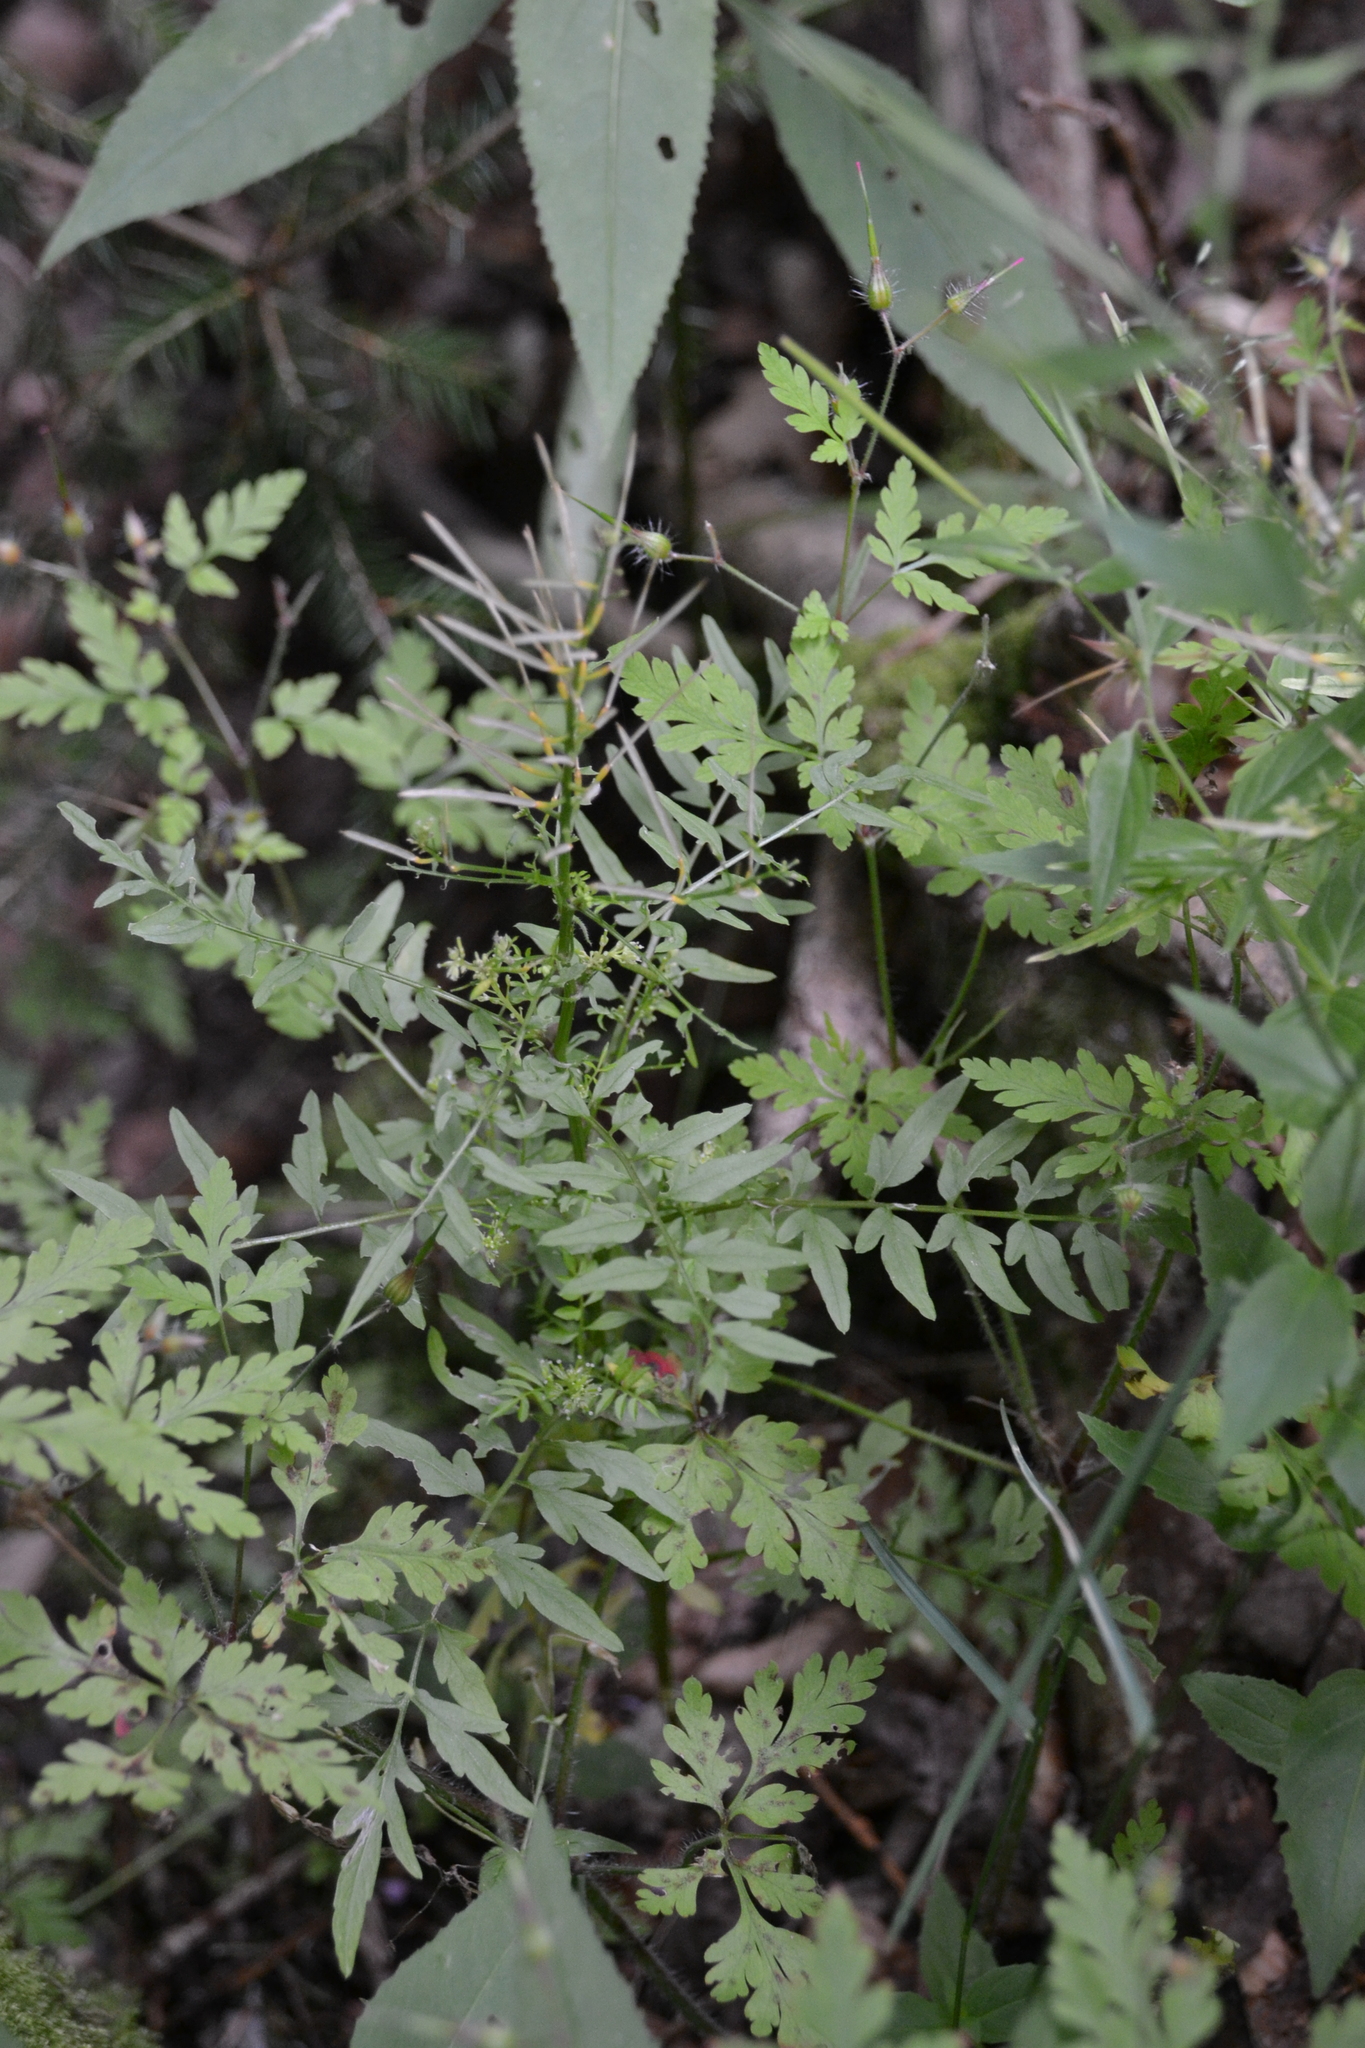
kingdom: Plantae
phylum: Tracheophyta
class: Magnoliopsida
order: Brassicales
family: Brassicaceae
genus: Cardamine
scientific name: Cardamine impatiens
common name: Narrow-leaved bitter-cress
